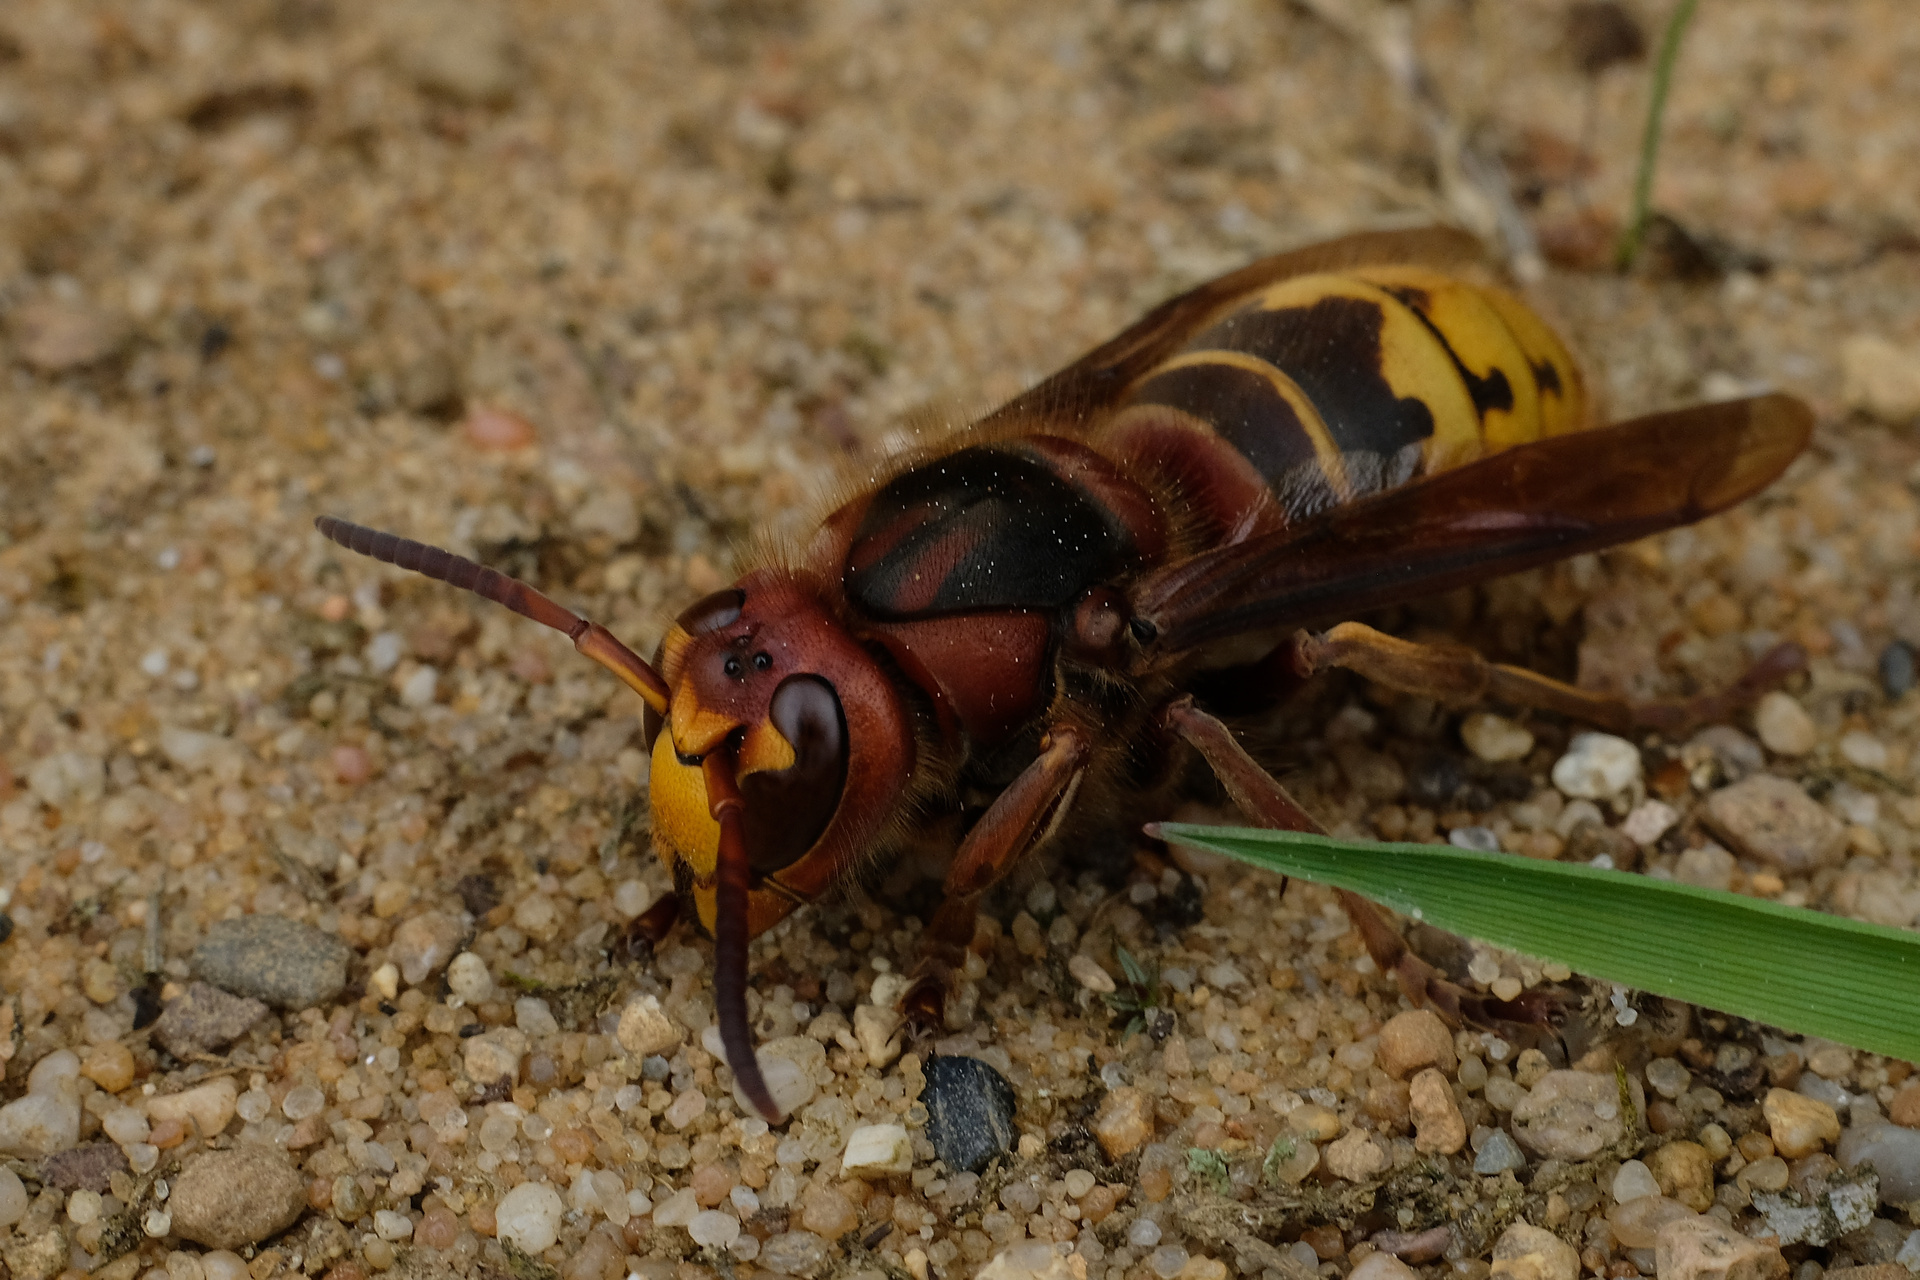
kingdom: Animalia
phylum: Arthropoda
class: Insecta
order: Hymenoptera
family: Vespidae
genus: Vespa
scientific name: Vespa crabro
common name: Hornet
